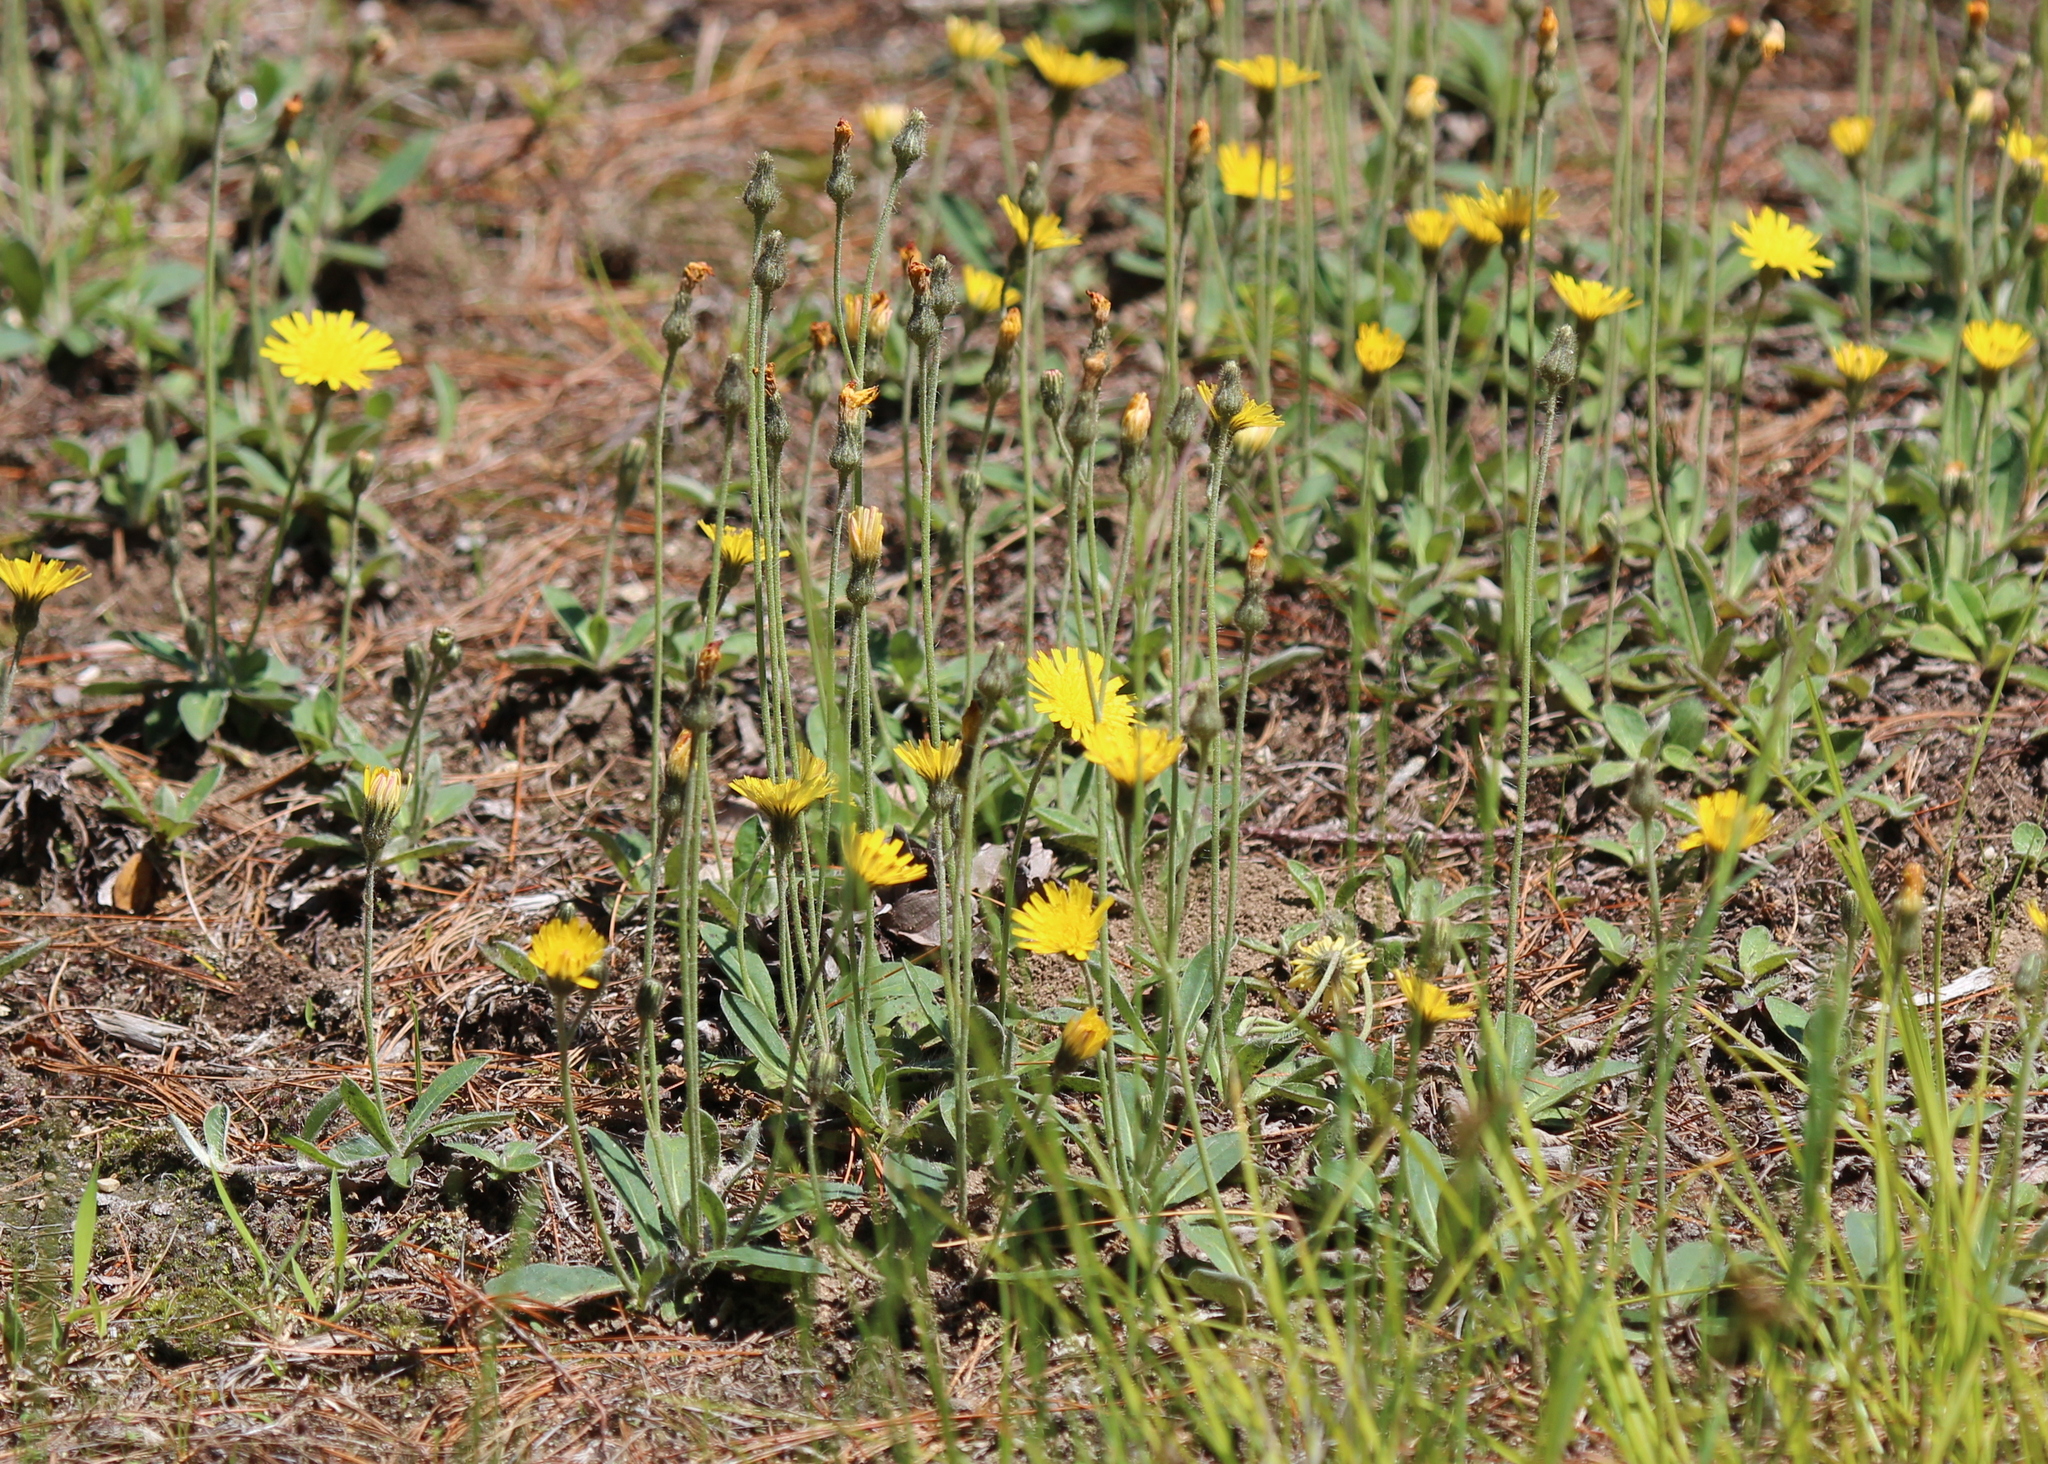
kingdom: Plantae
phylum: Tracheophyta
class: Magnoliopsida
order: Asterales
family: Asteraceae
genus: Pilosella
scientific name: Pilosella officinarum
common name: Mouse-ear hawkweed
